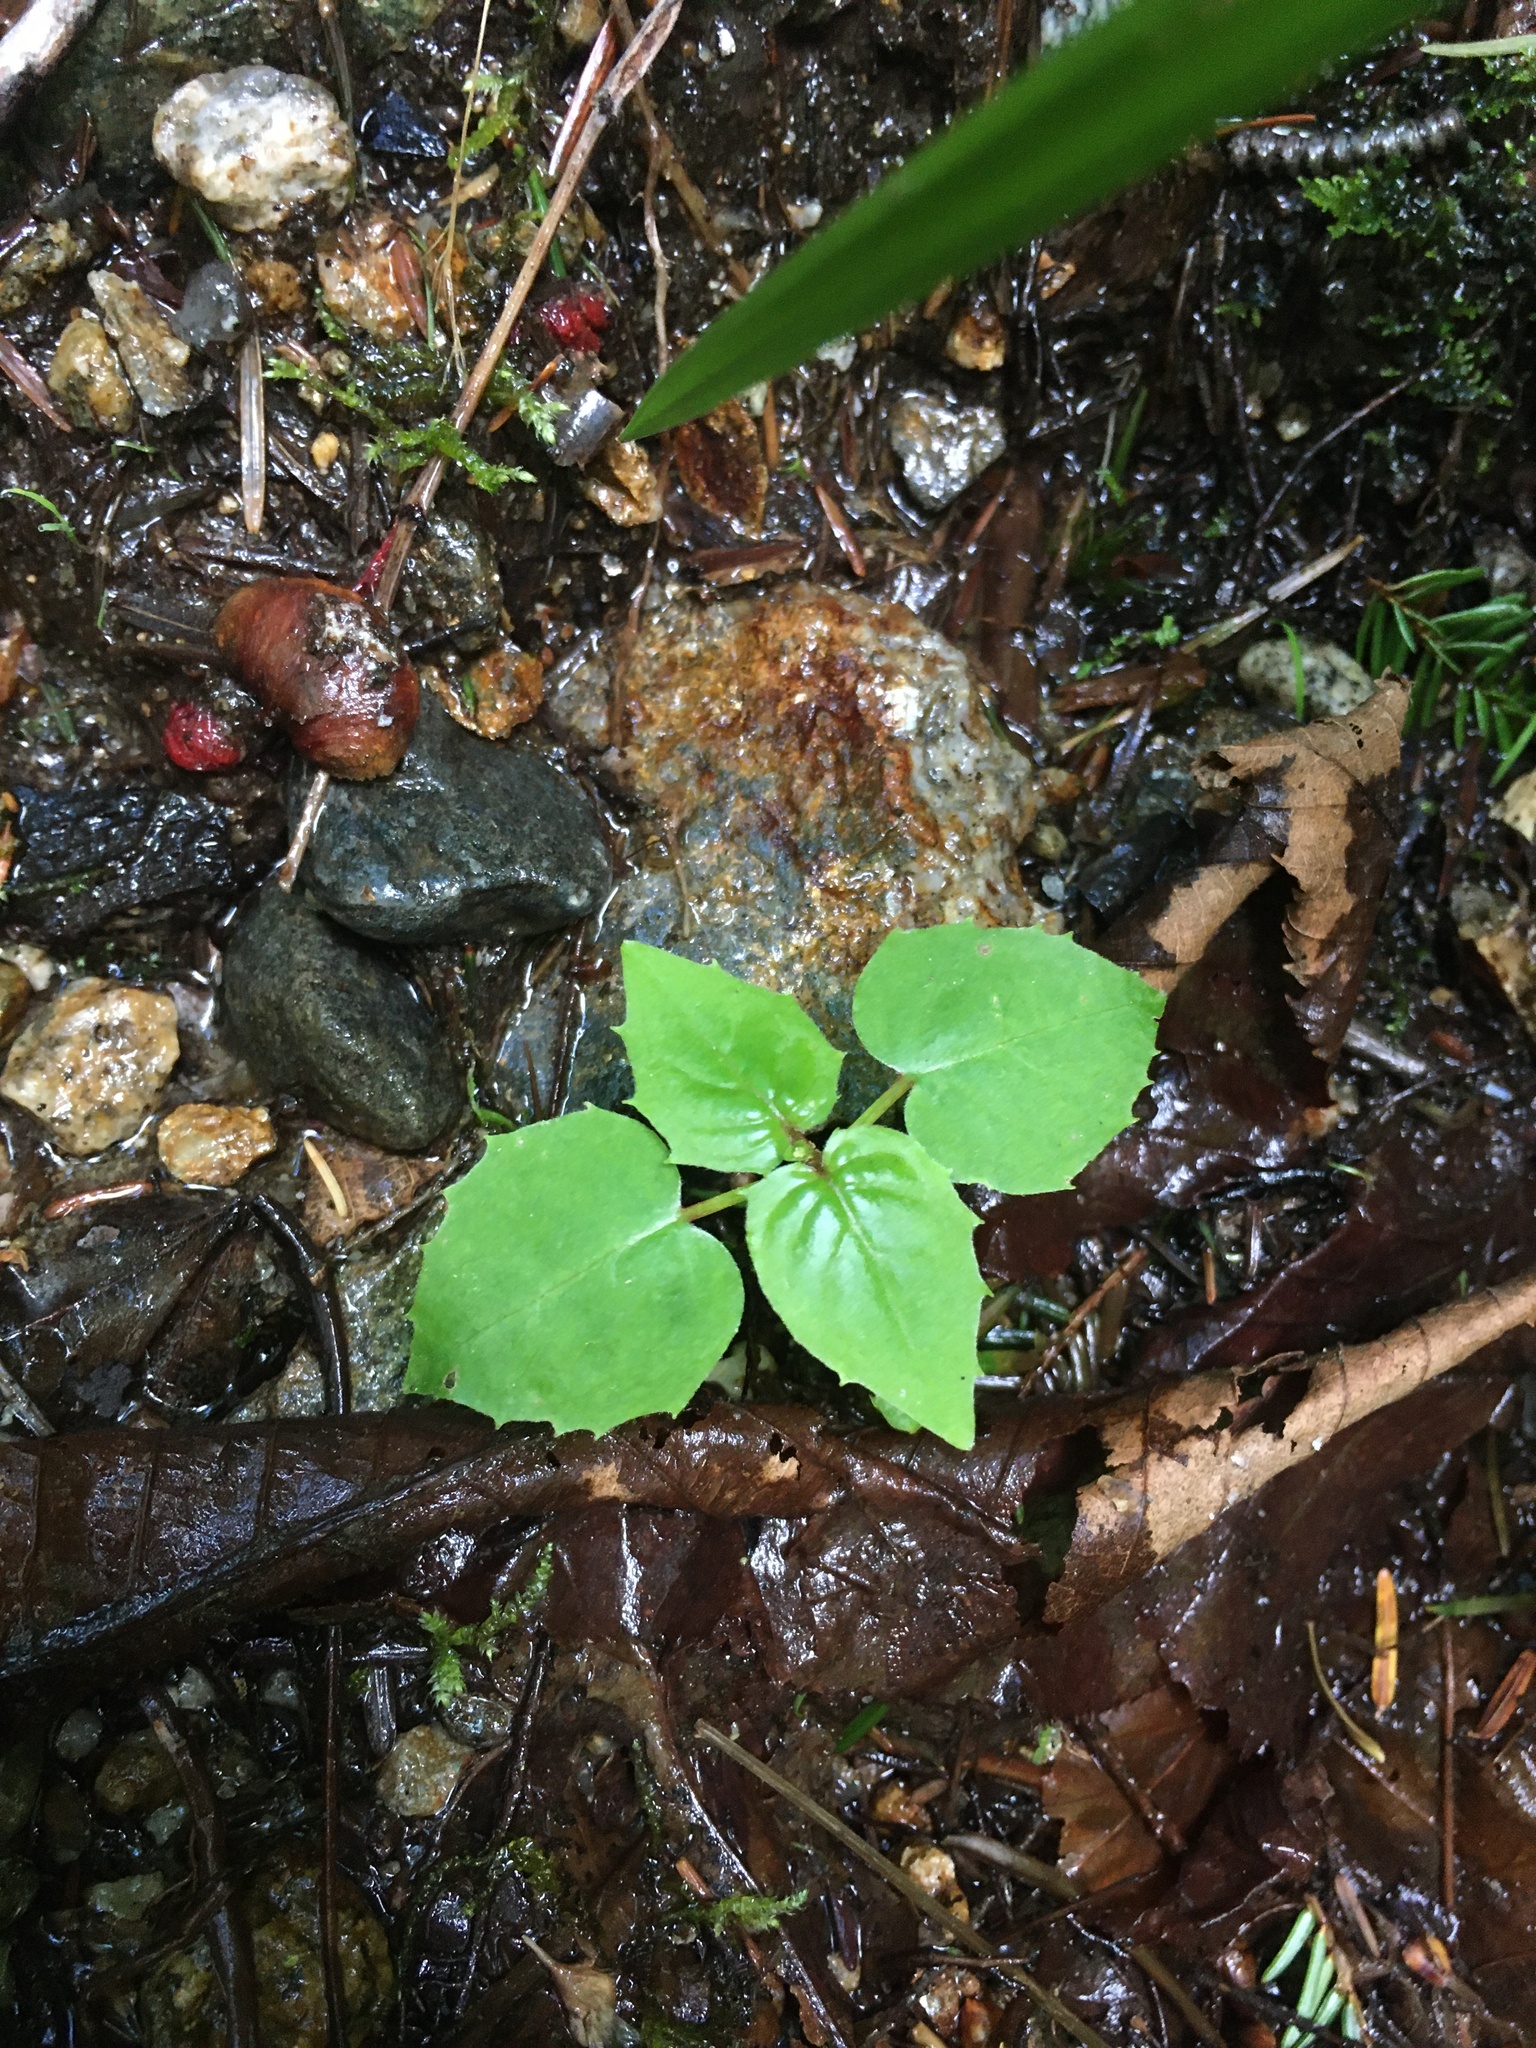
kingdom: Plantae
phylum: Tracheophyta
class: Magnoliopsida
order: Myrtales
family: Onagraceae
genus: Circaea
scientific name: Circaea alpina
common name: Alpine enchanter's-nightshade
